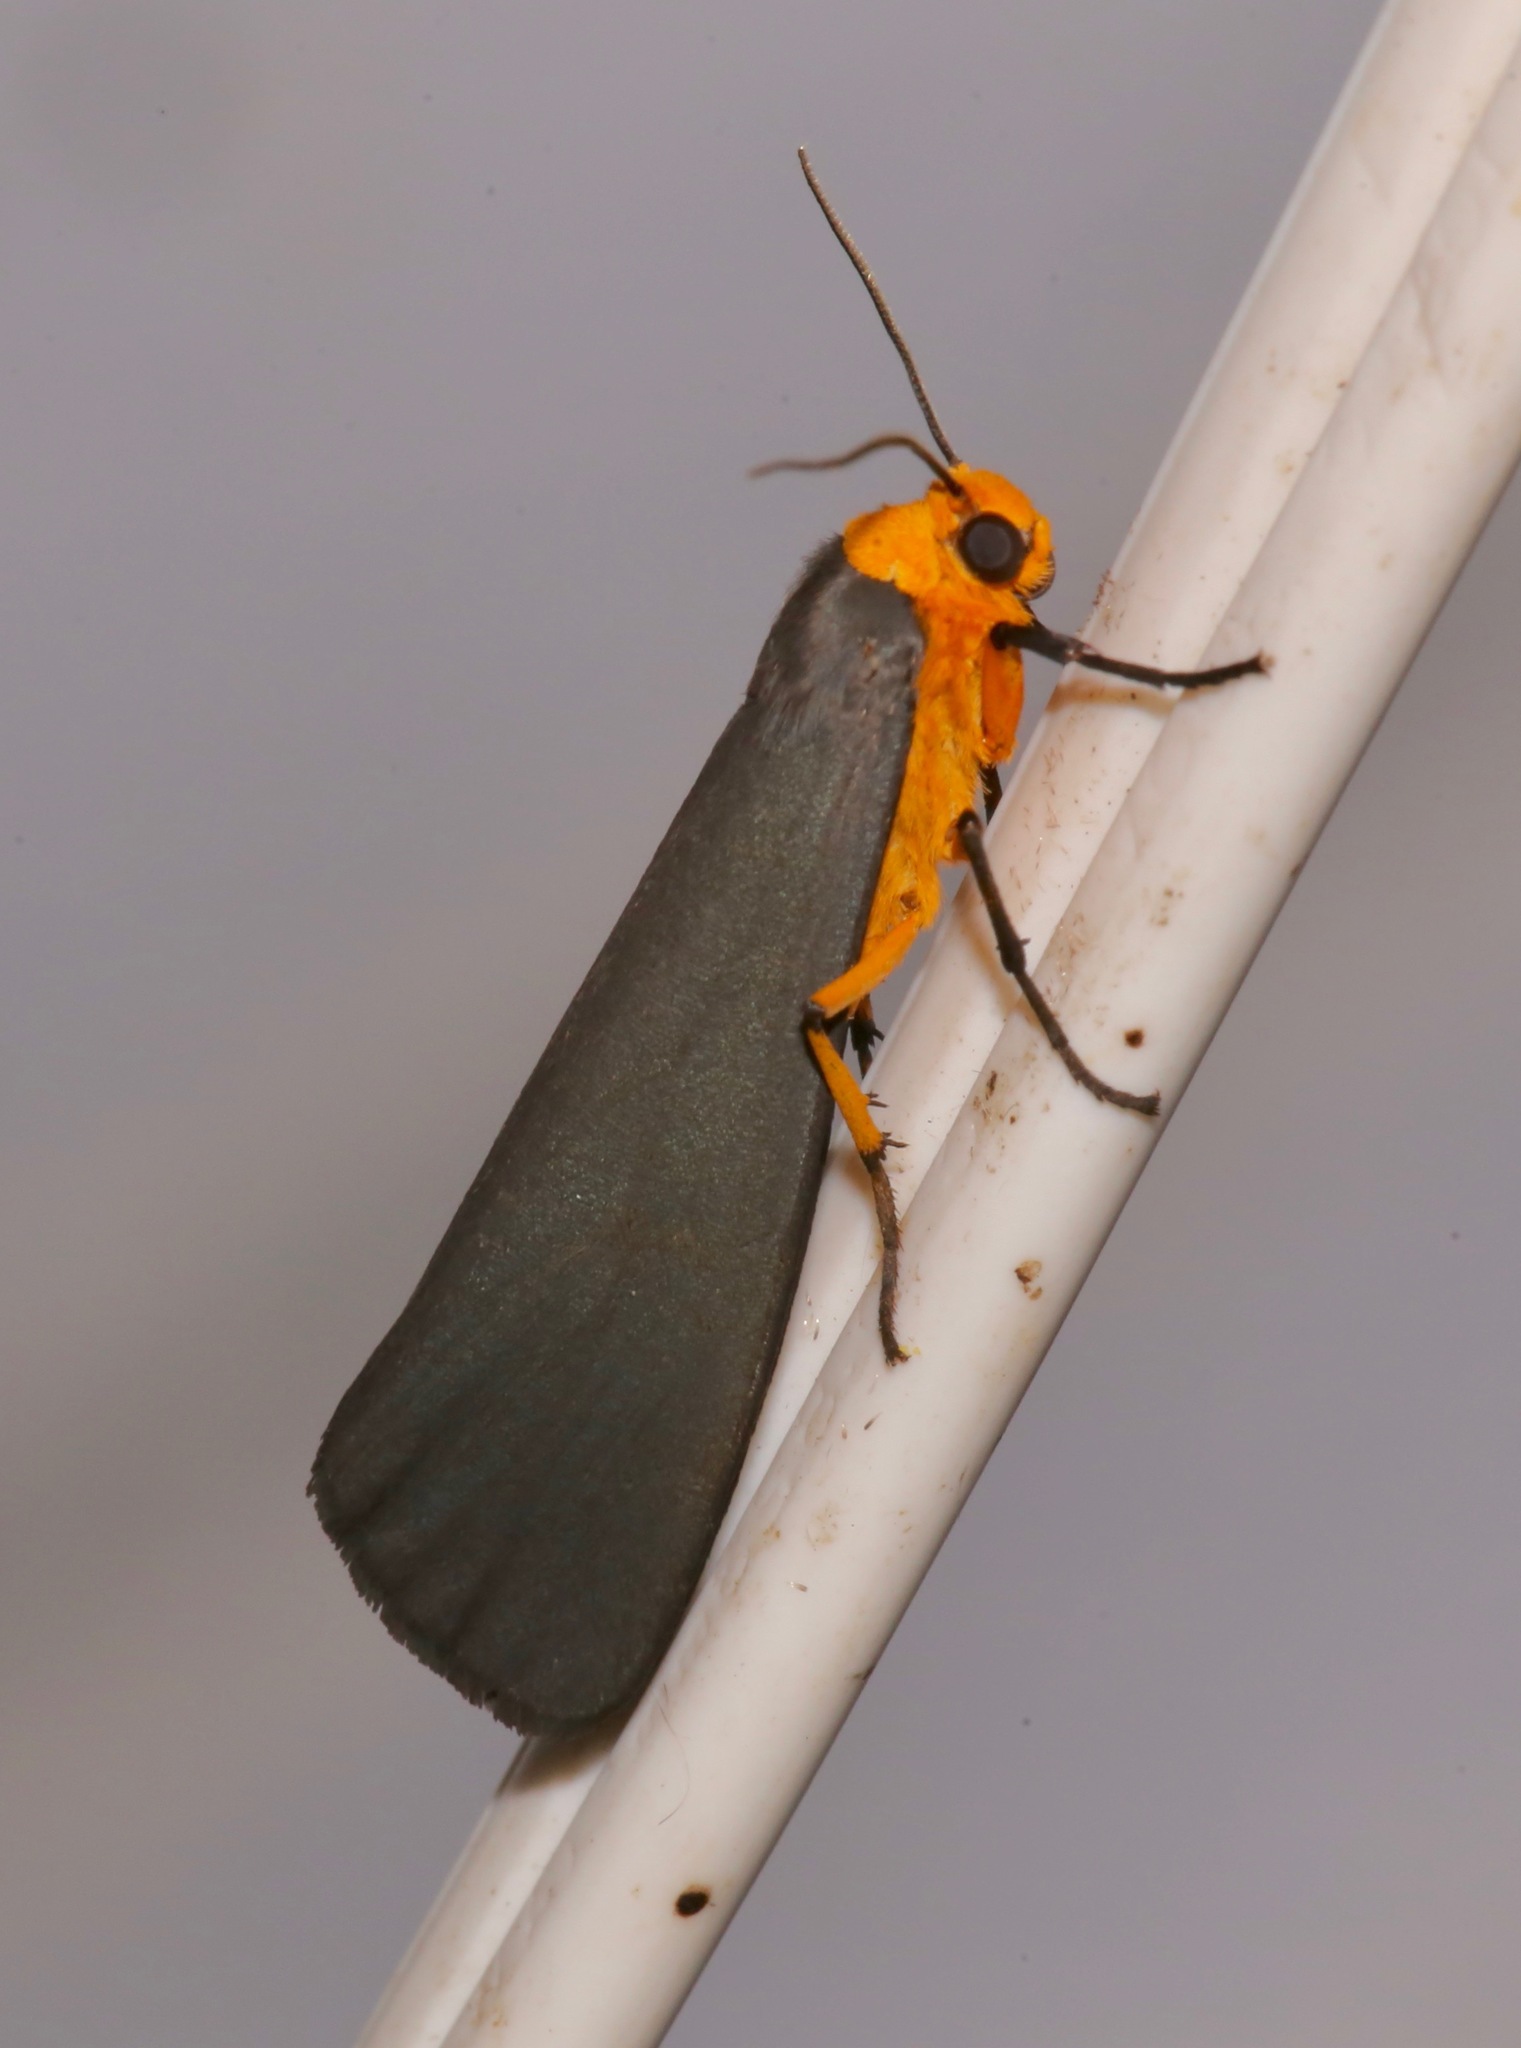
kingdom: Animalia
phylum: Arthropoda
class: Insecta
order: Lepidoptera
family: Erebidae
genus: Gnamptonychia
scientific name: Gnamptonychia ventralis
